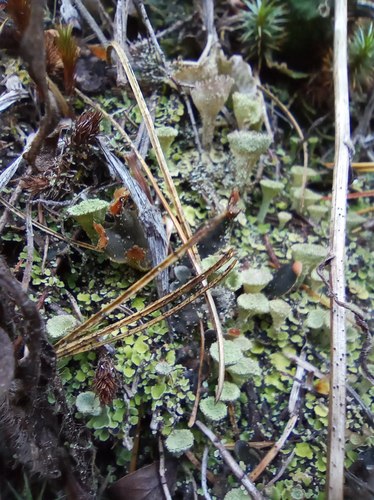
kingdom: Fungi
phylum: Ascomycota
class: Lecanoromycetes
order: Lecanorales
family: Cladoniaceae
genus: Cladonia
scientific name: Cladonia pyxidata
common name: Pebbled pixie cup
